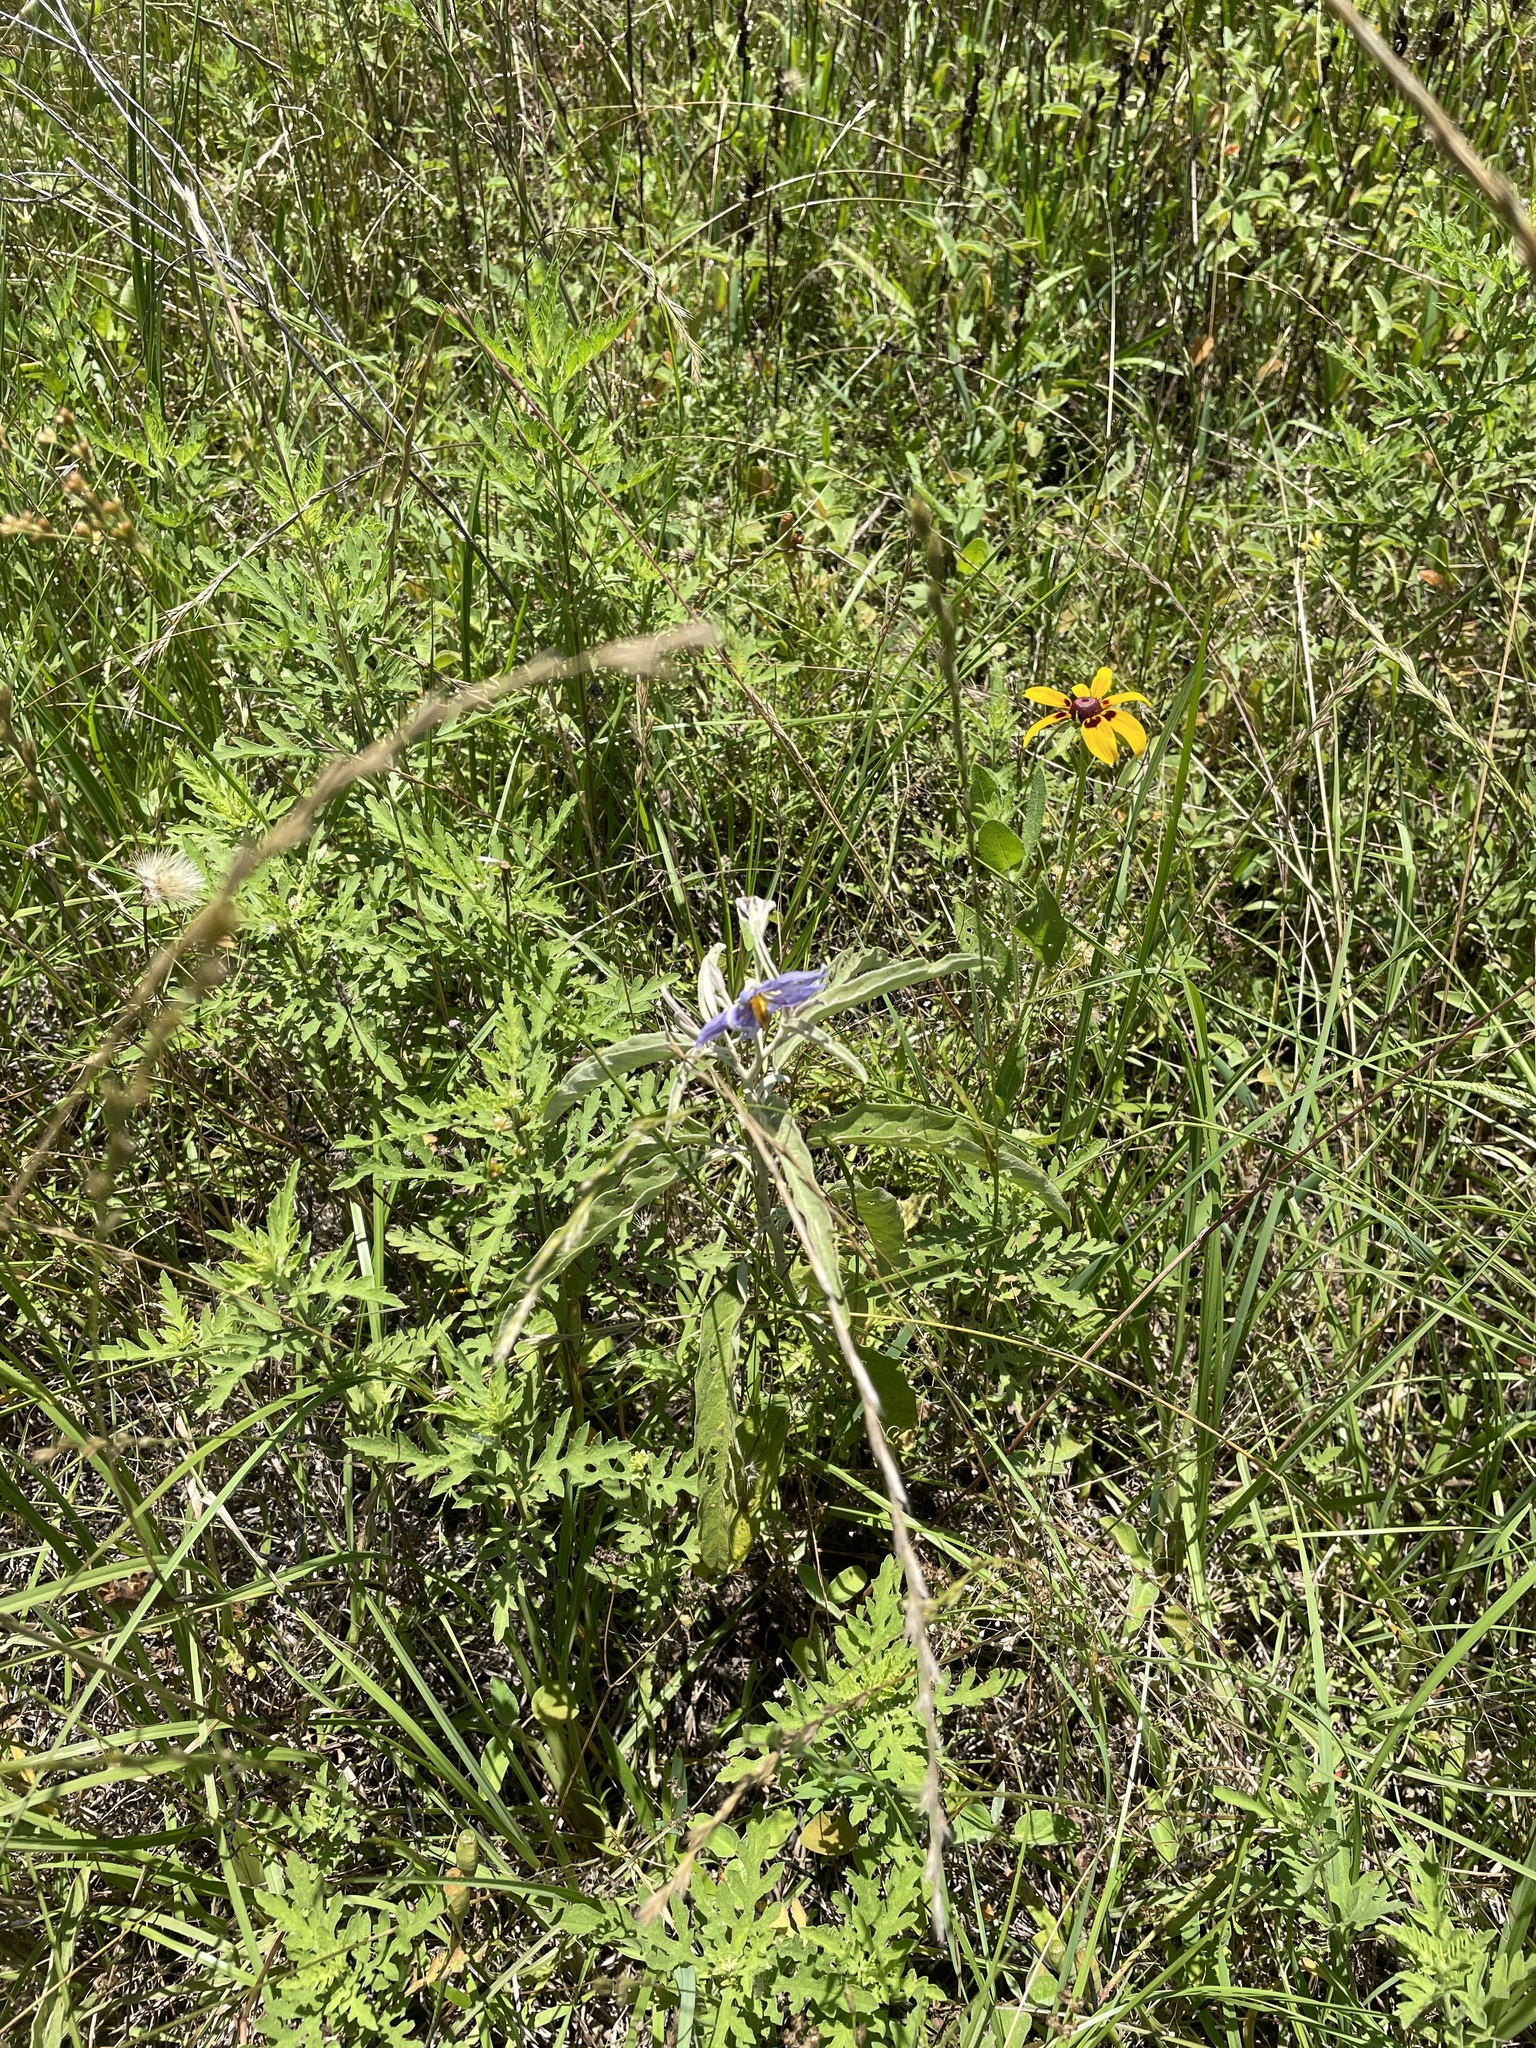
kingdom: Plantae
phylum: Tracheophyta
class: Magnoliopsida
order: Solanales
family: Solanaceae
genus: Solanum
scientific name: Solanum elaeagnifolium
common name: Silverleaf nightshade
